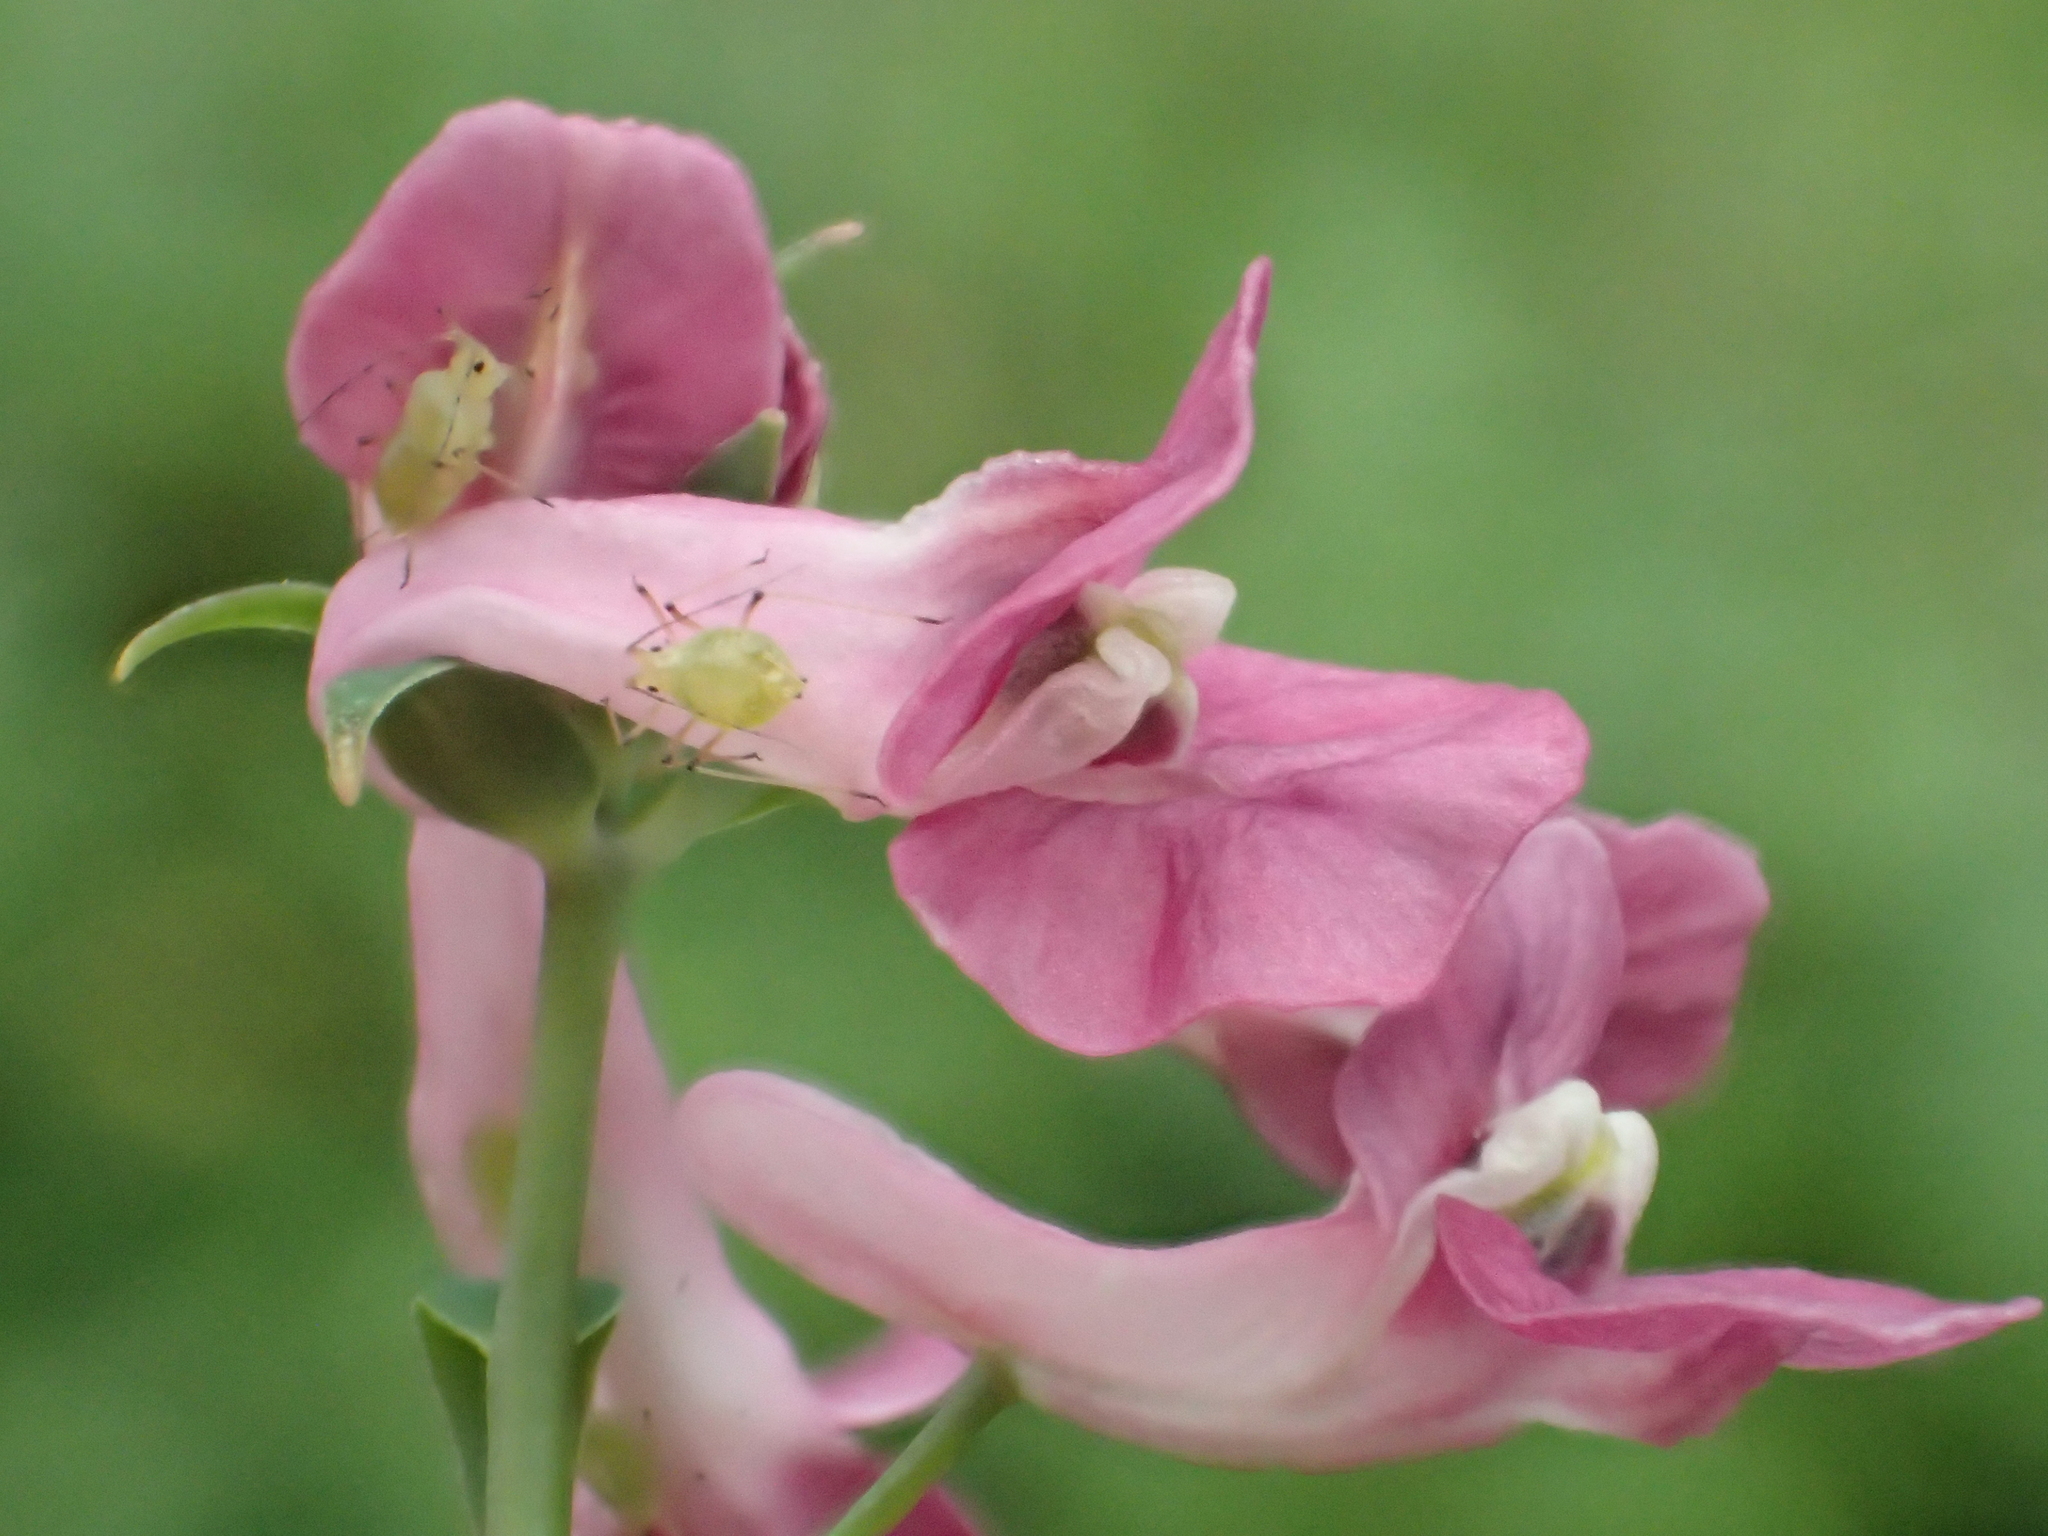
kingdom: Plantae
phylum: Tracheophyta
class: Magnoliopsida
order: Ranunculales
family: Papaveraceae
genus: Corydalis
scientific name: Corydalis decumbens
